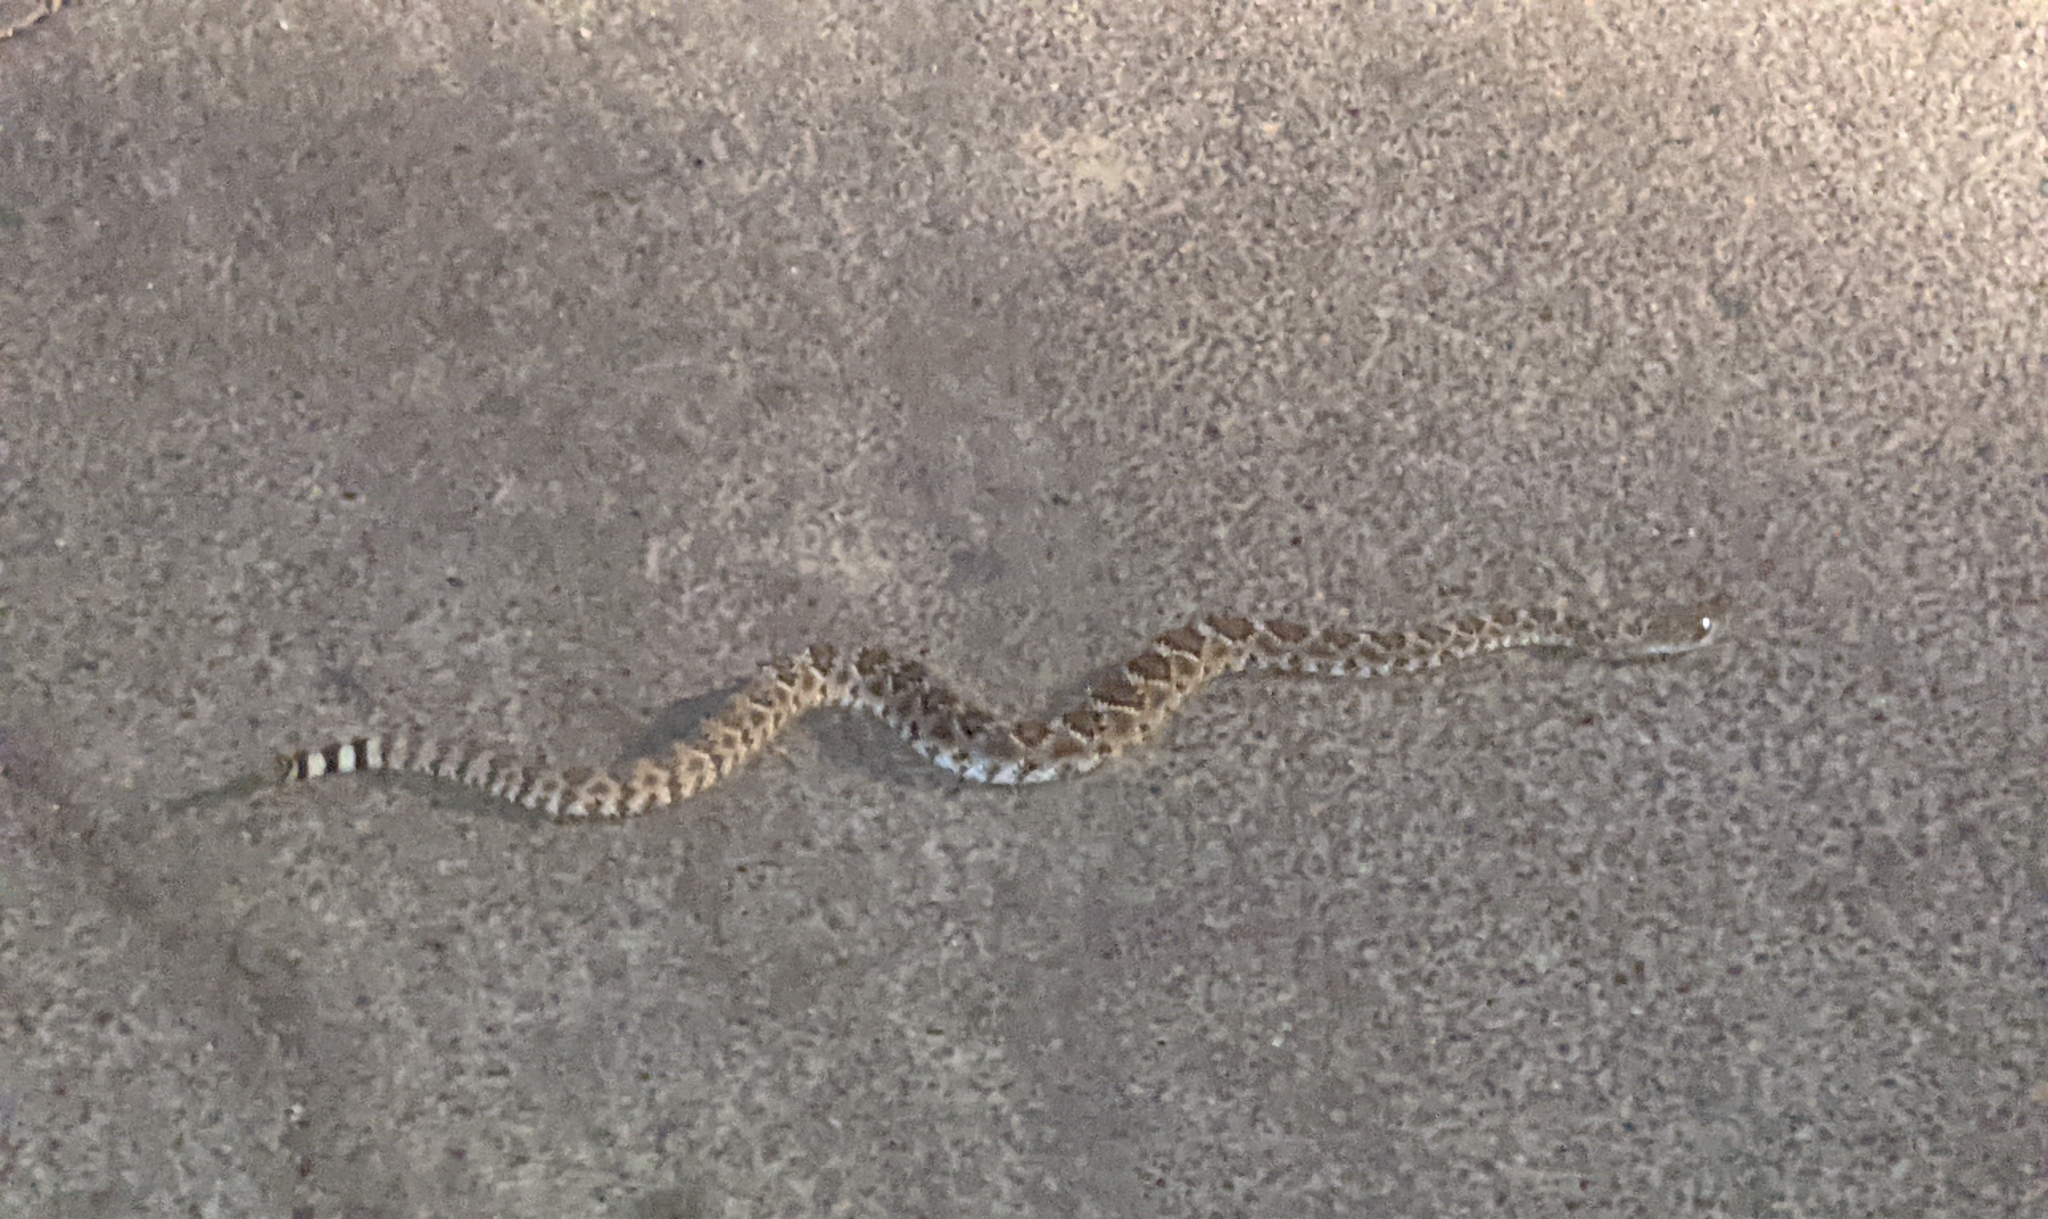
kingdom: Animalia
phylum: Chordata
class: Squamata
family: Viperidae
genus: Crotalus
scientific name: Crotalus atrox
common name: Western diamond-backed rattlesnake
